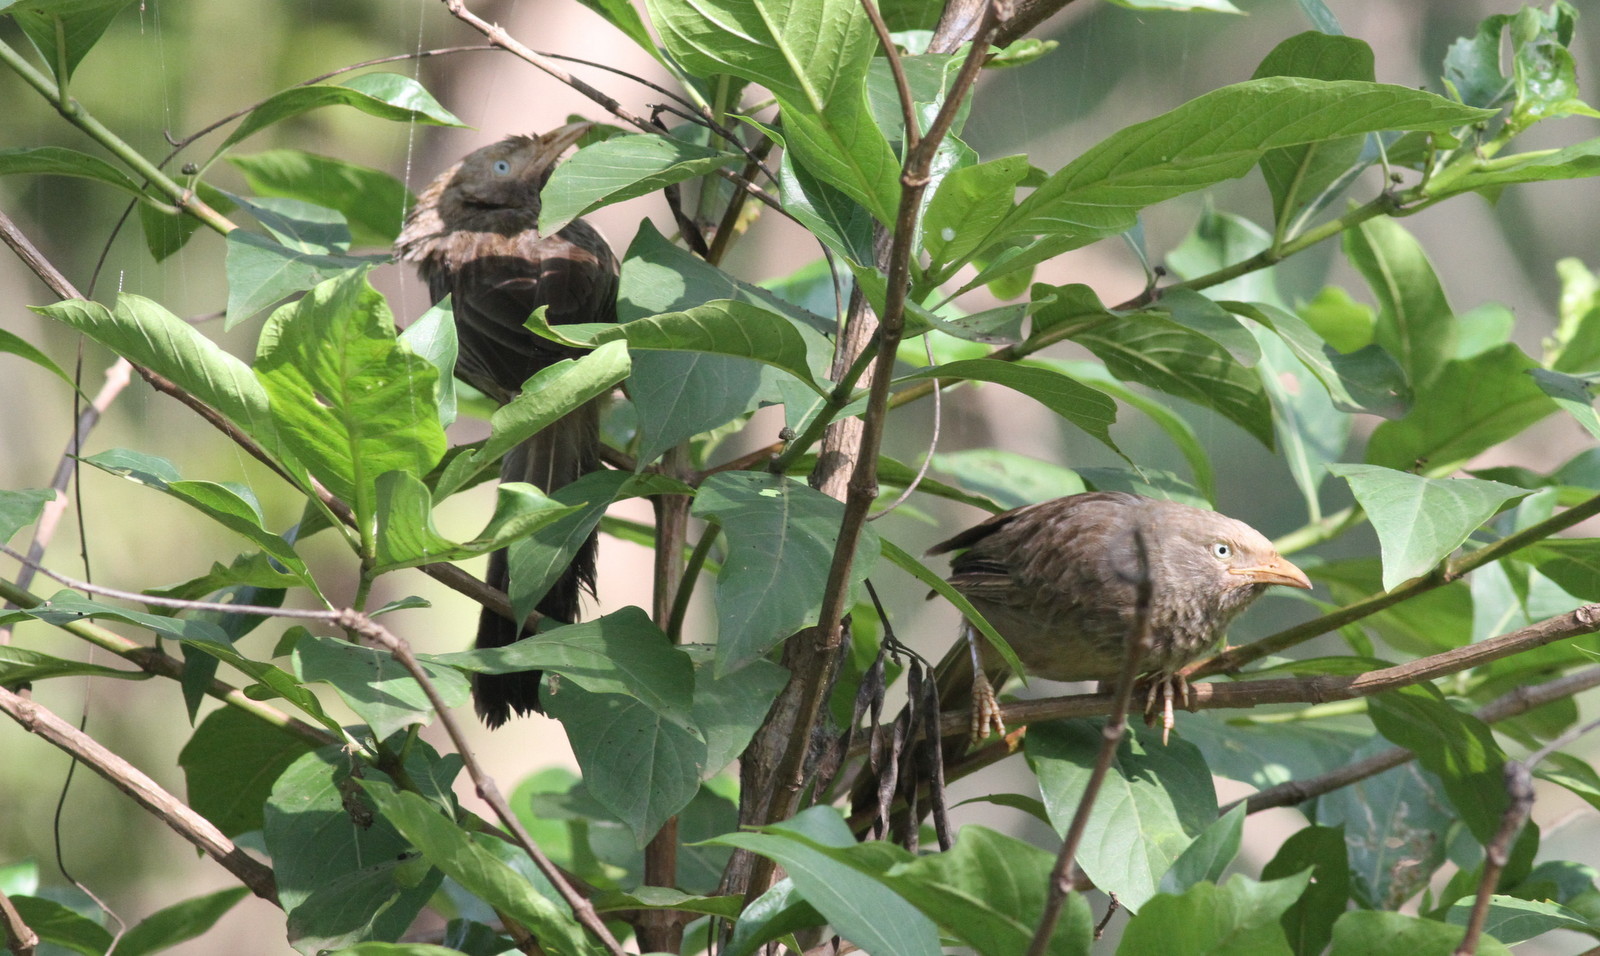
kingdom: Animalia
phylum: Chordata
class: Aves
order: Passeriformes
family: Leiothrichidae
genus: Turdoides
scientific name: Turdoides striata
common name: Jungle babbler
